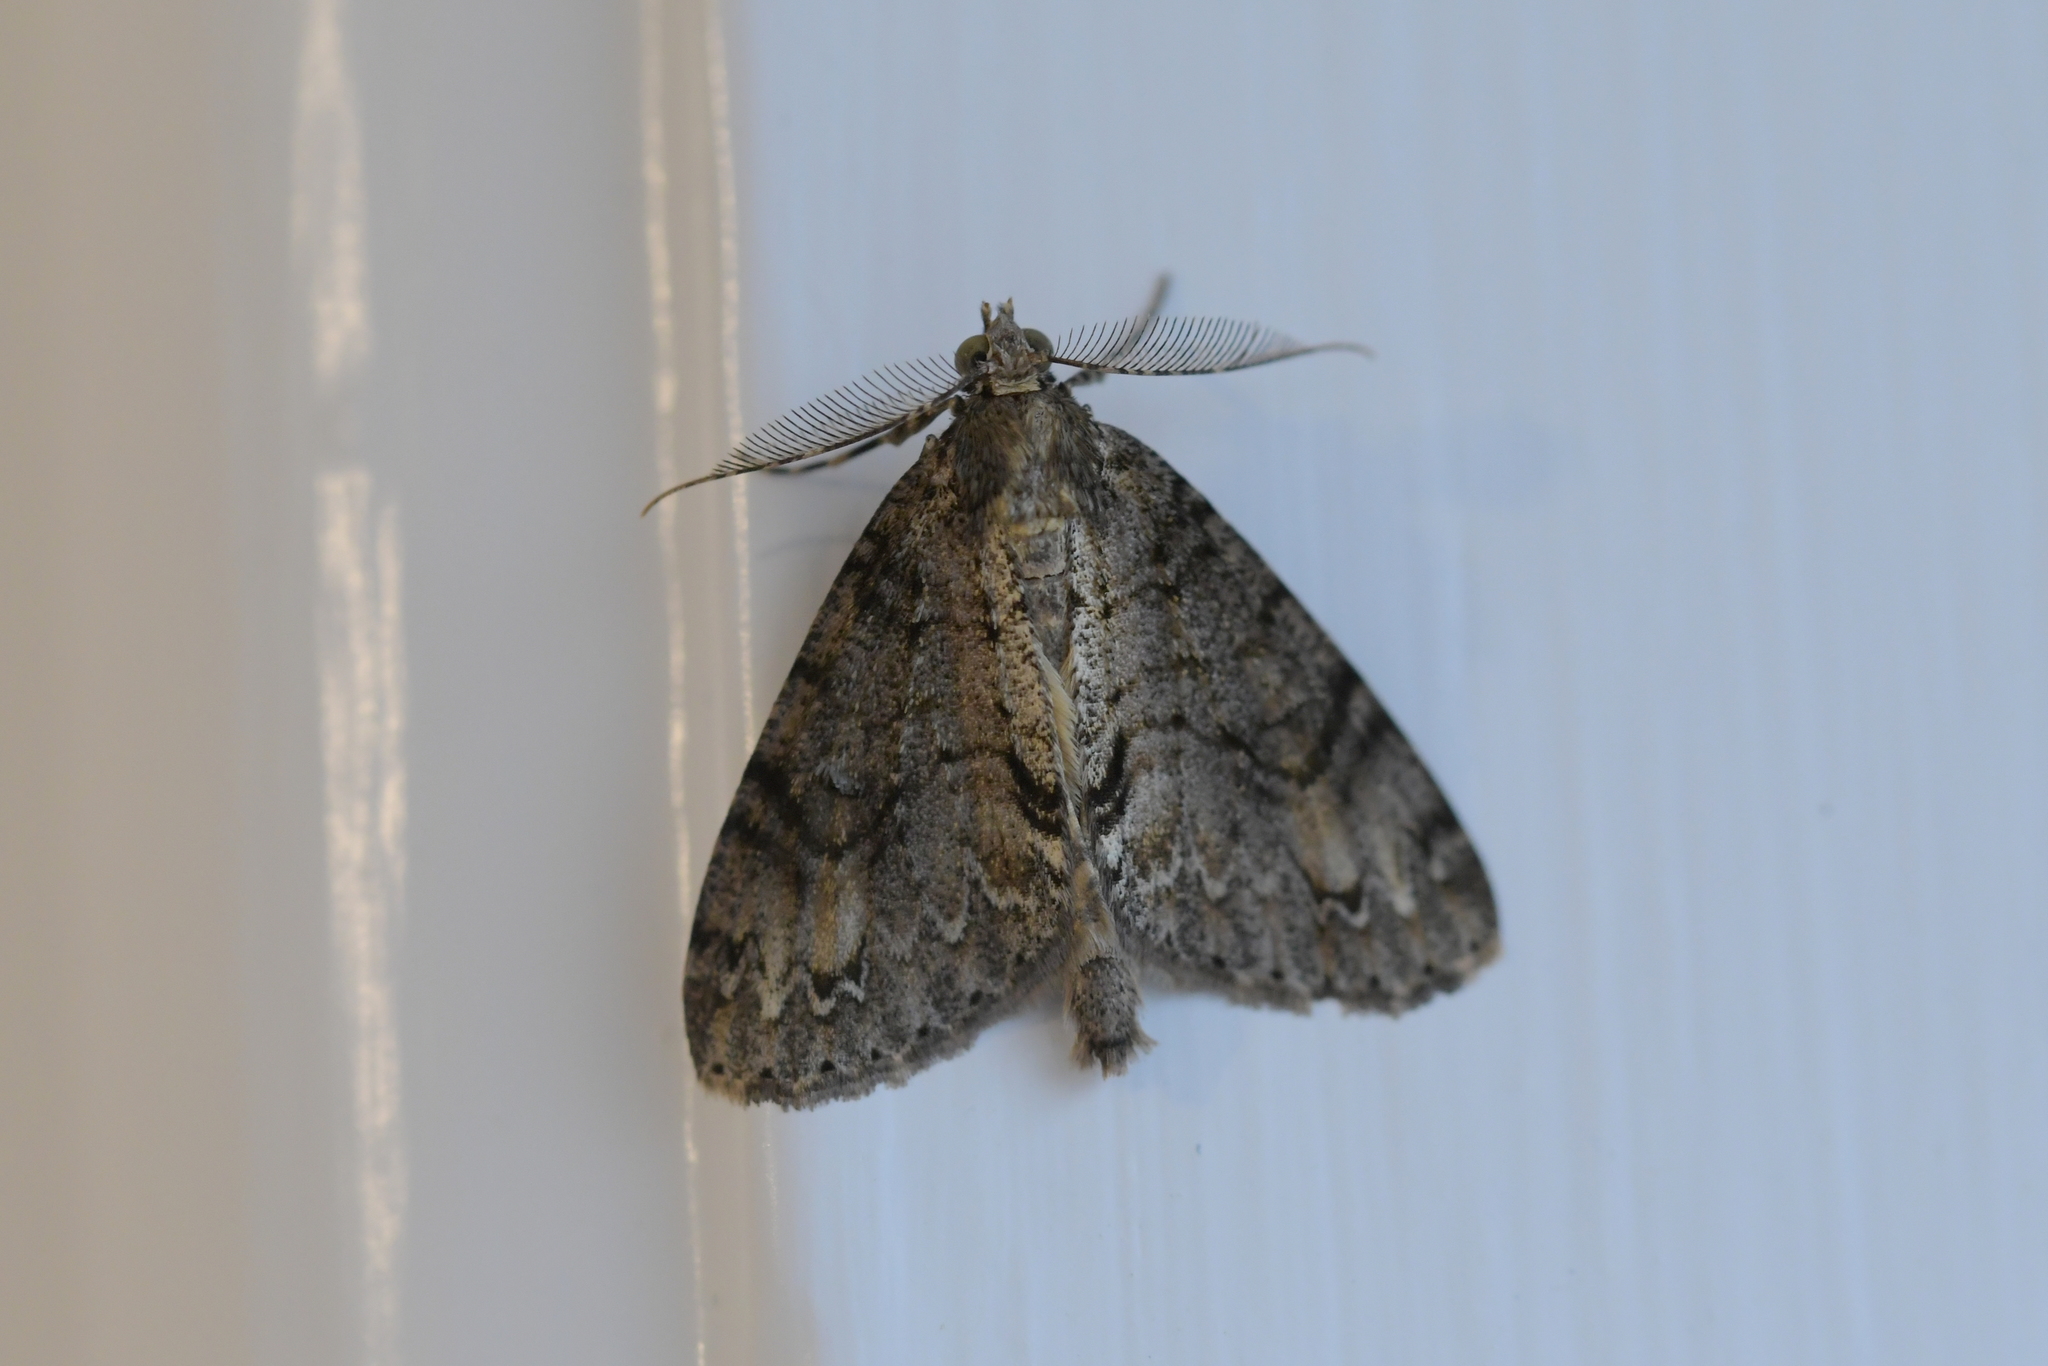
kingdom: Animalia
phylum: Arthropoda
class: Insecta
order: Lepidoptera
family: Geometridae
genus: Pseudocoremia
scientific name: Pseudocoremia suavis
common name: Common forest looper
